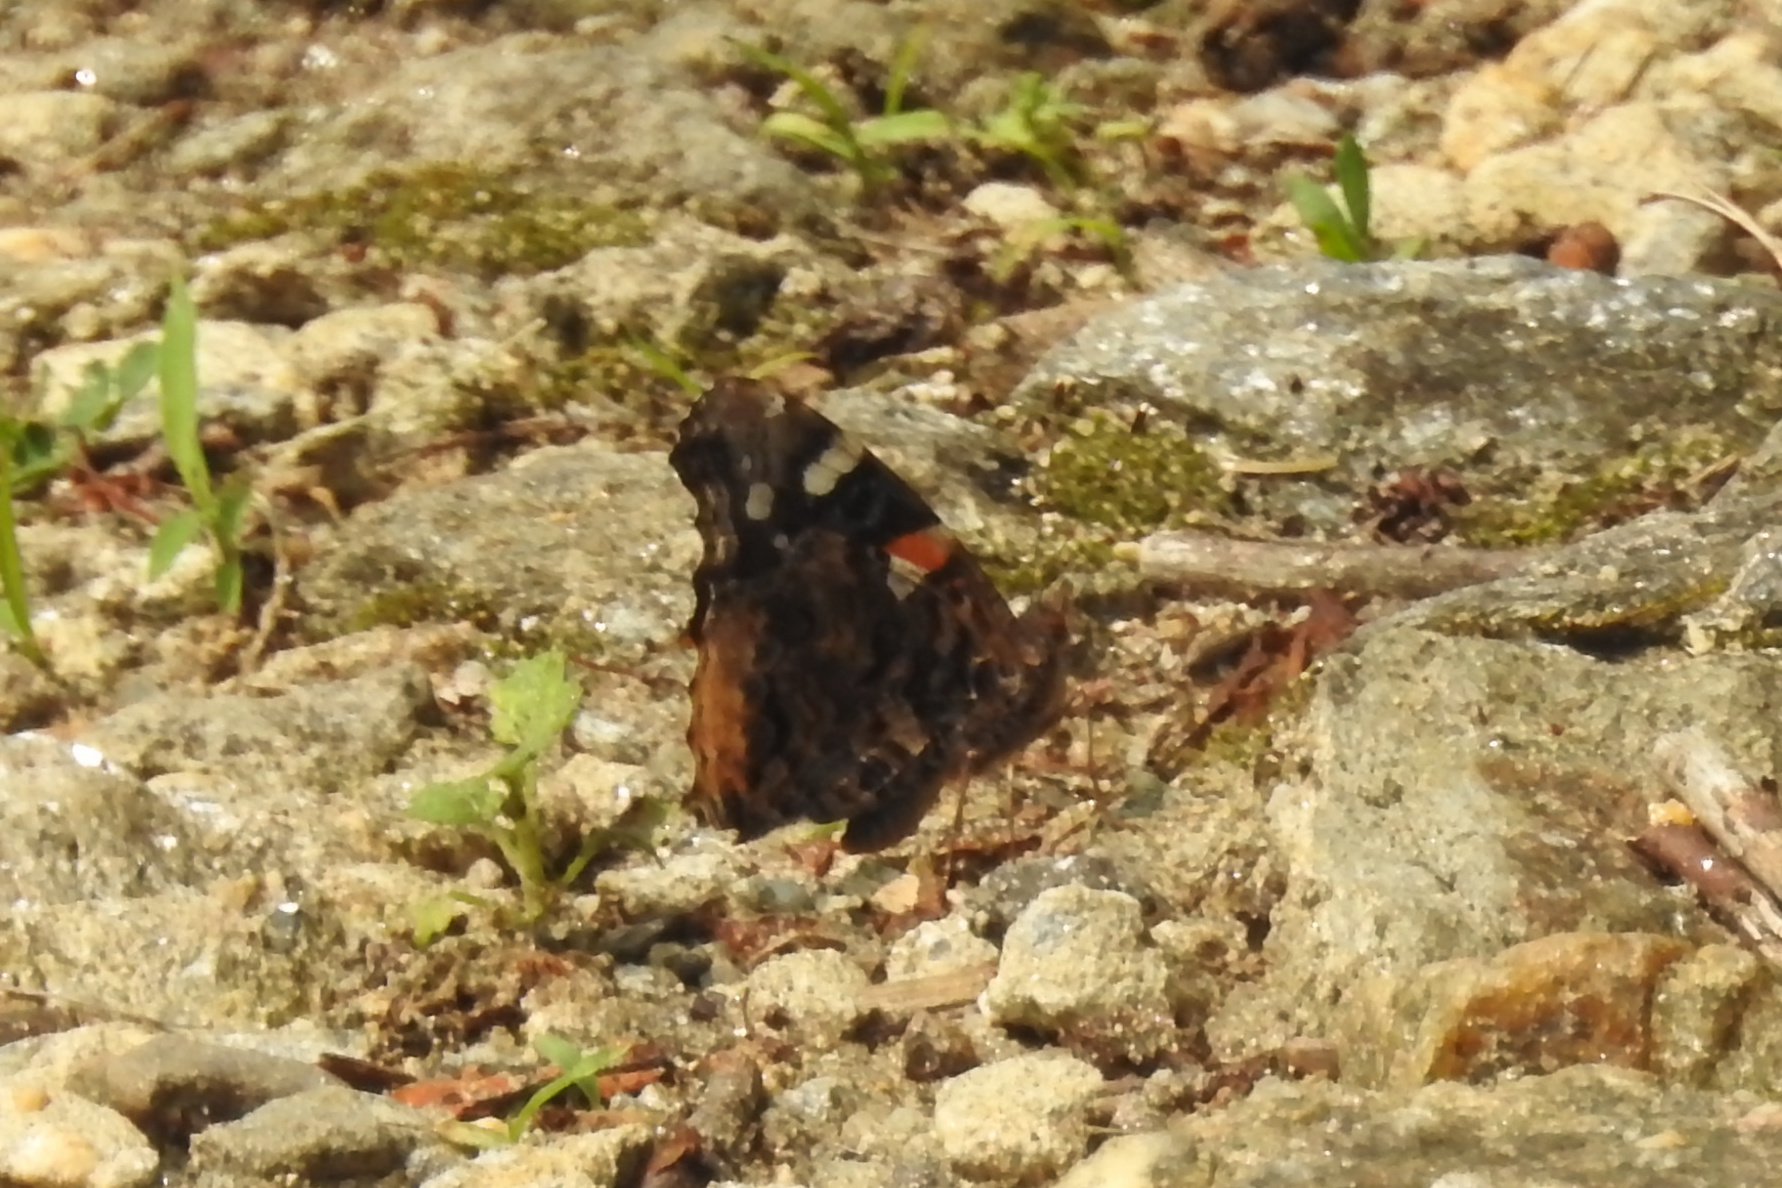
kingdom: Animalia
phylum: Arthropoda
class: Insecta
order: Lepidoptera
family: Nymphalidae
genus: Vanessa
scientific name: Vanessa atalanta
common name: Red admiral
